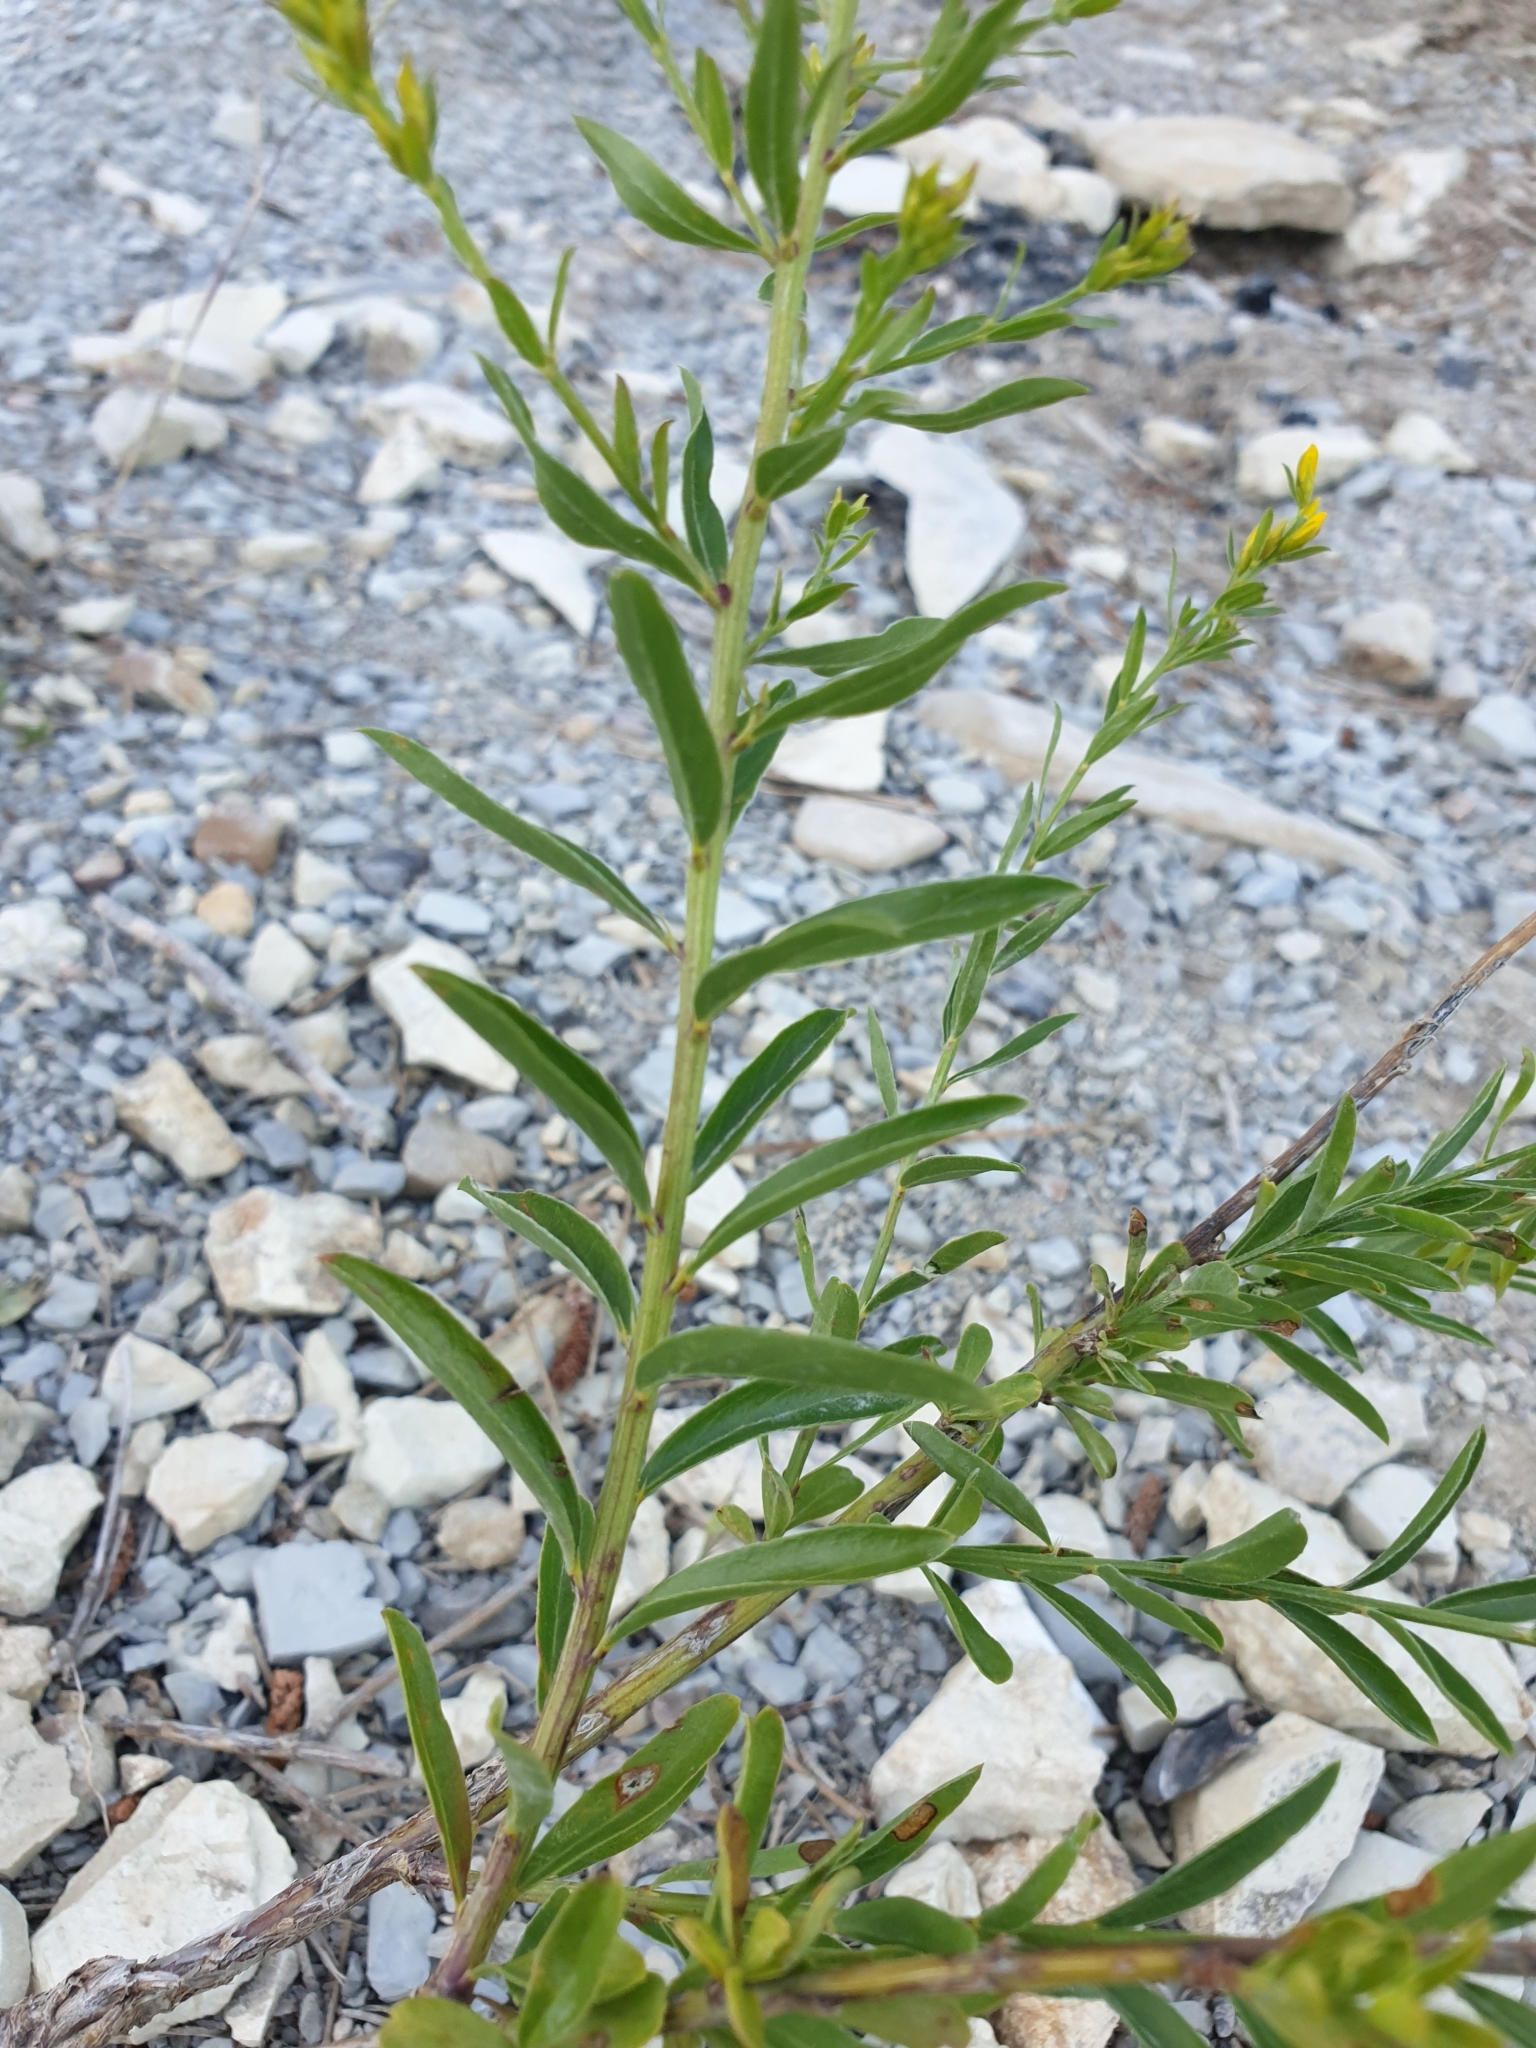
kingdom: Plantae
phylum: Tracheophyta
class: Magnoliopsida
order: Fabales
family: Fabaceae
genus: Genista
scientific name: Genista tinctoria
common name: Dyer's greenweed
